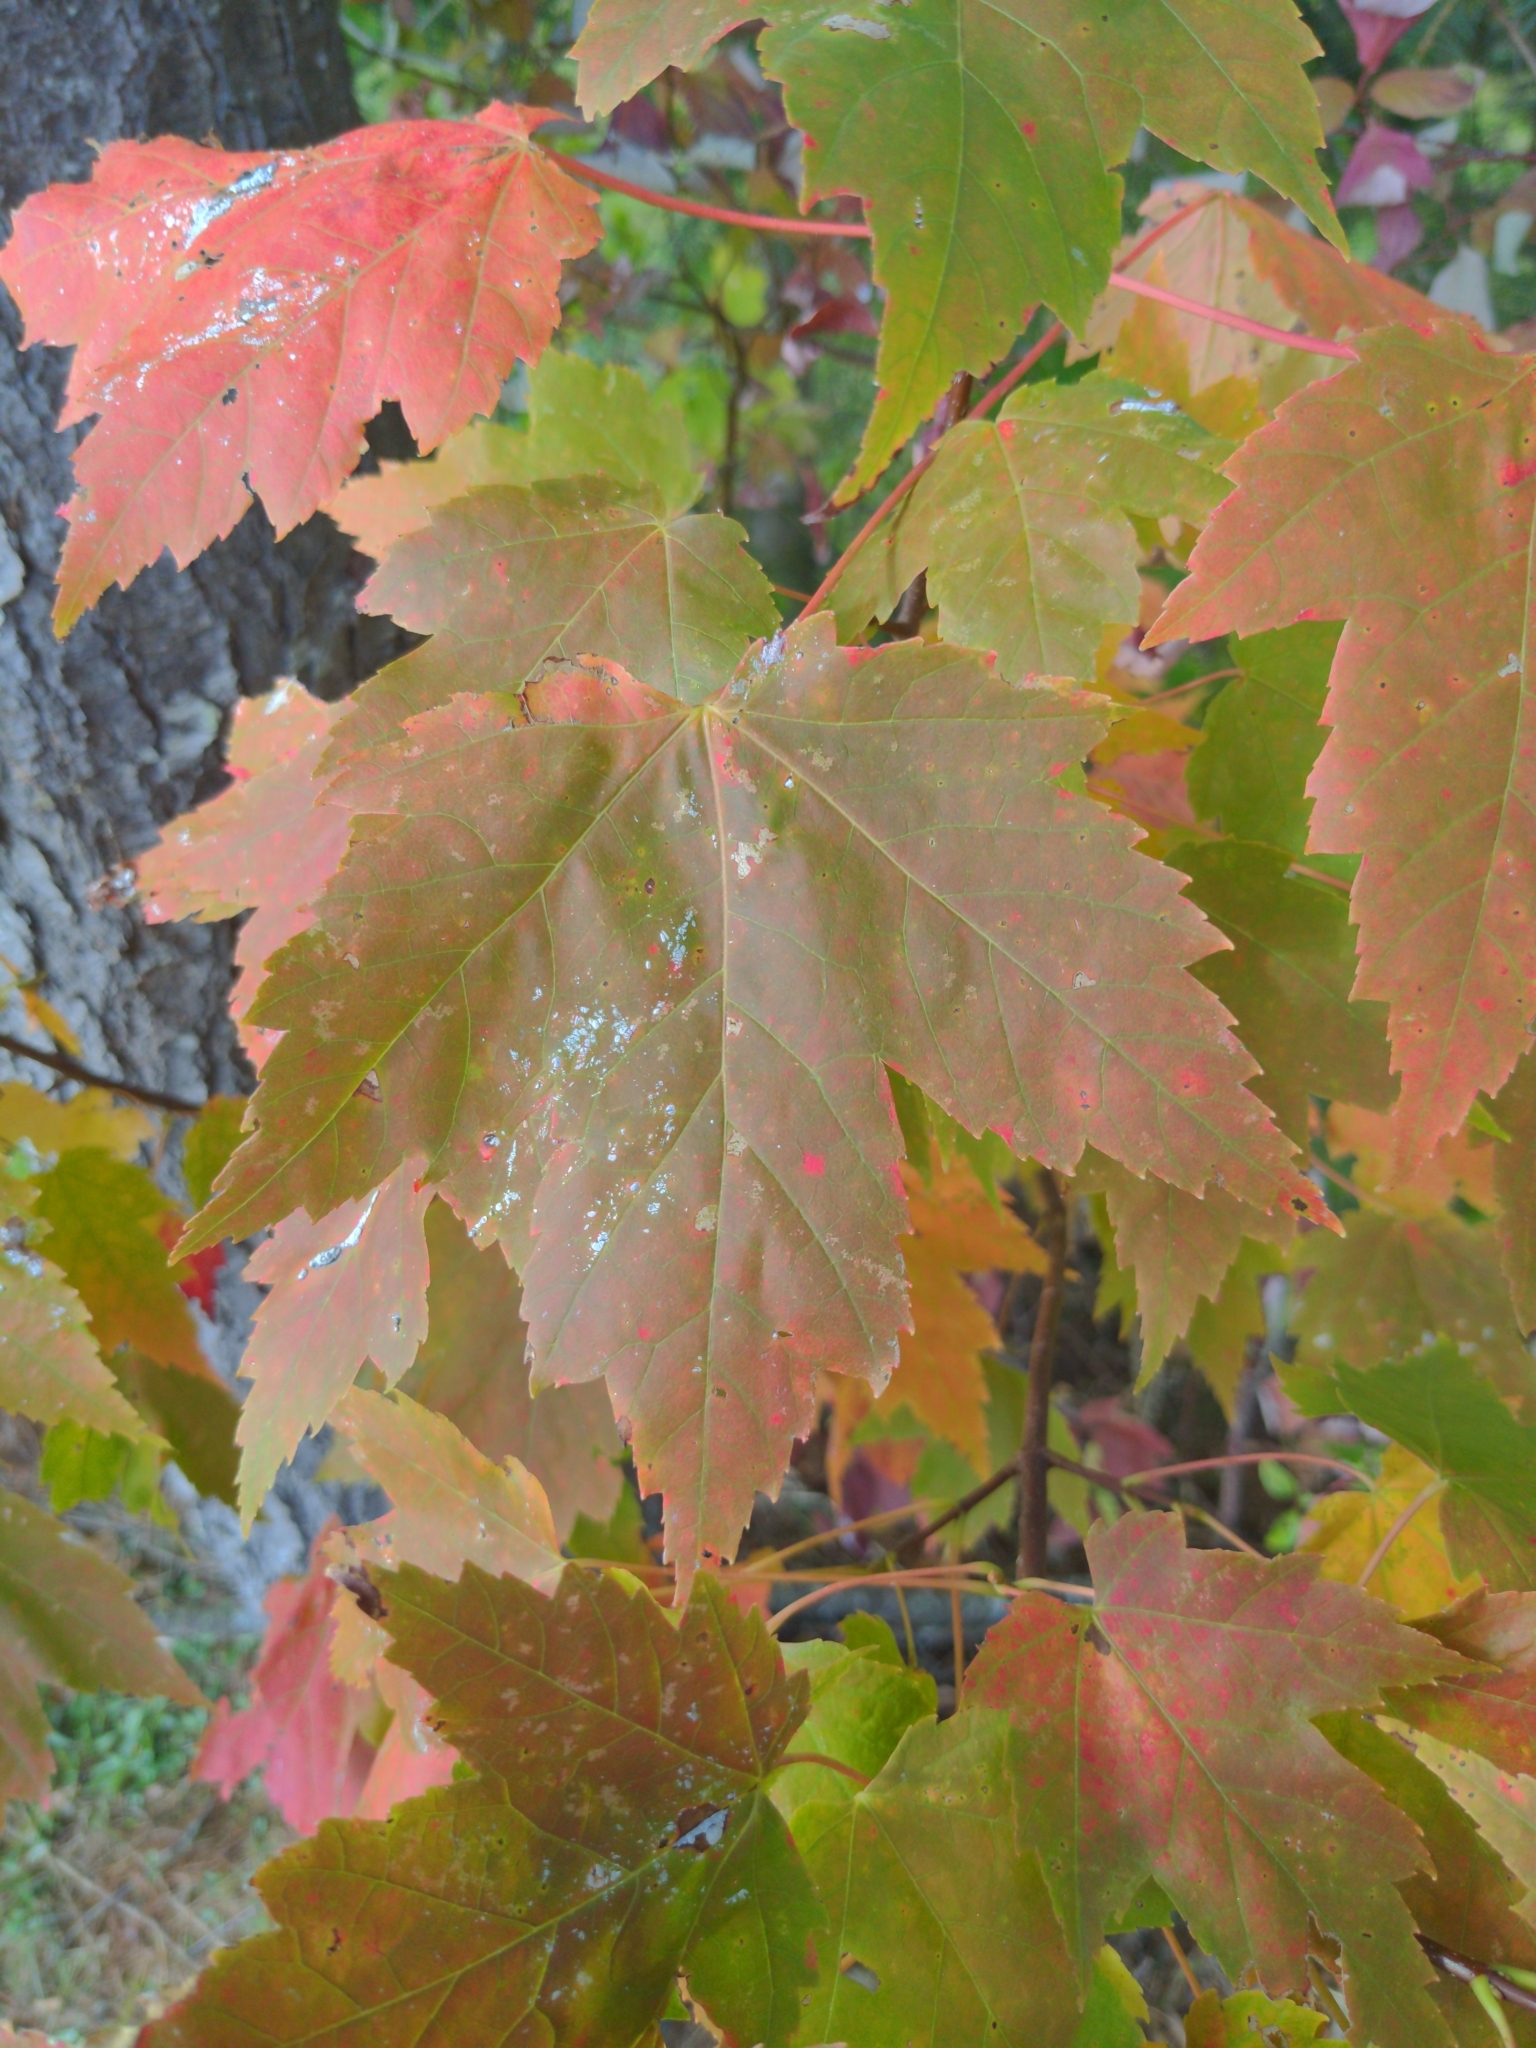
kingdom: Plantae
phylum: Tracheophyta
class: Magnoliopsida
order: Sapindales
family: Sapindaceae
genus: Acer
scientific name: Acer rubrum
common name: Red maple
